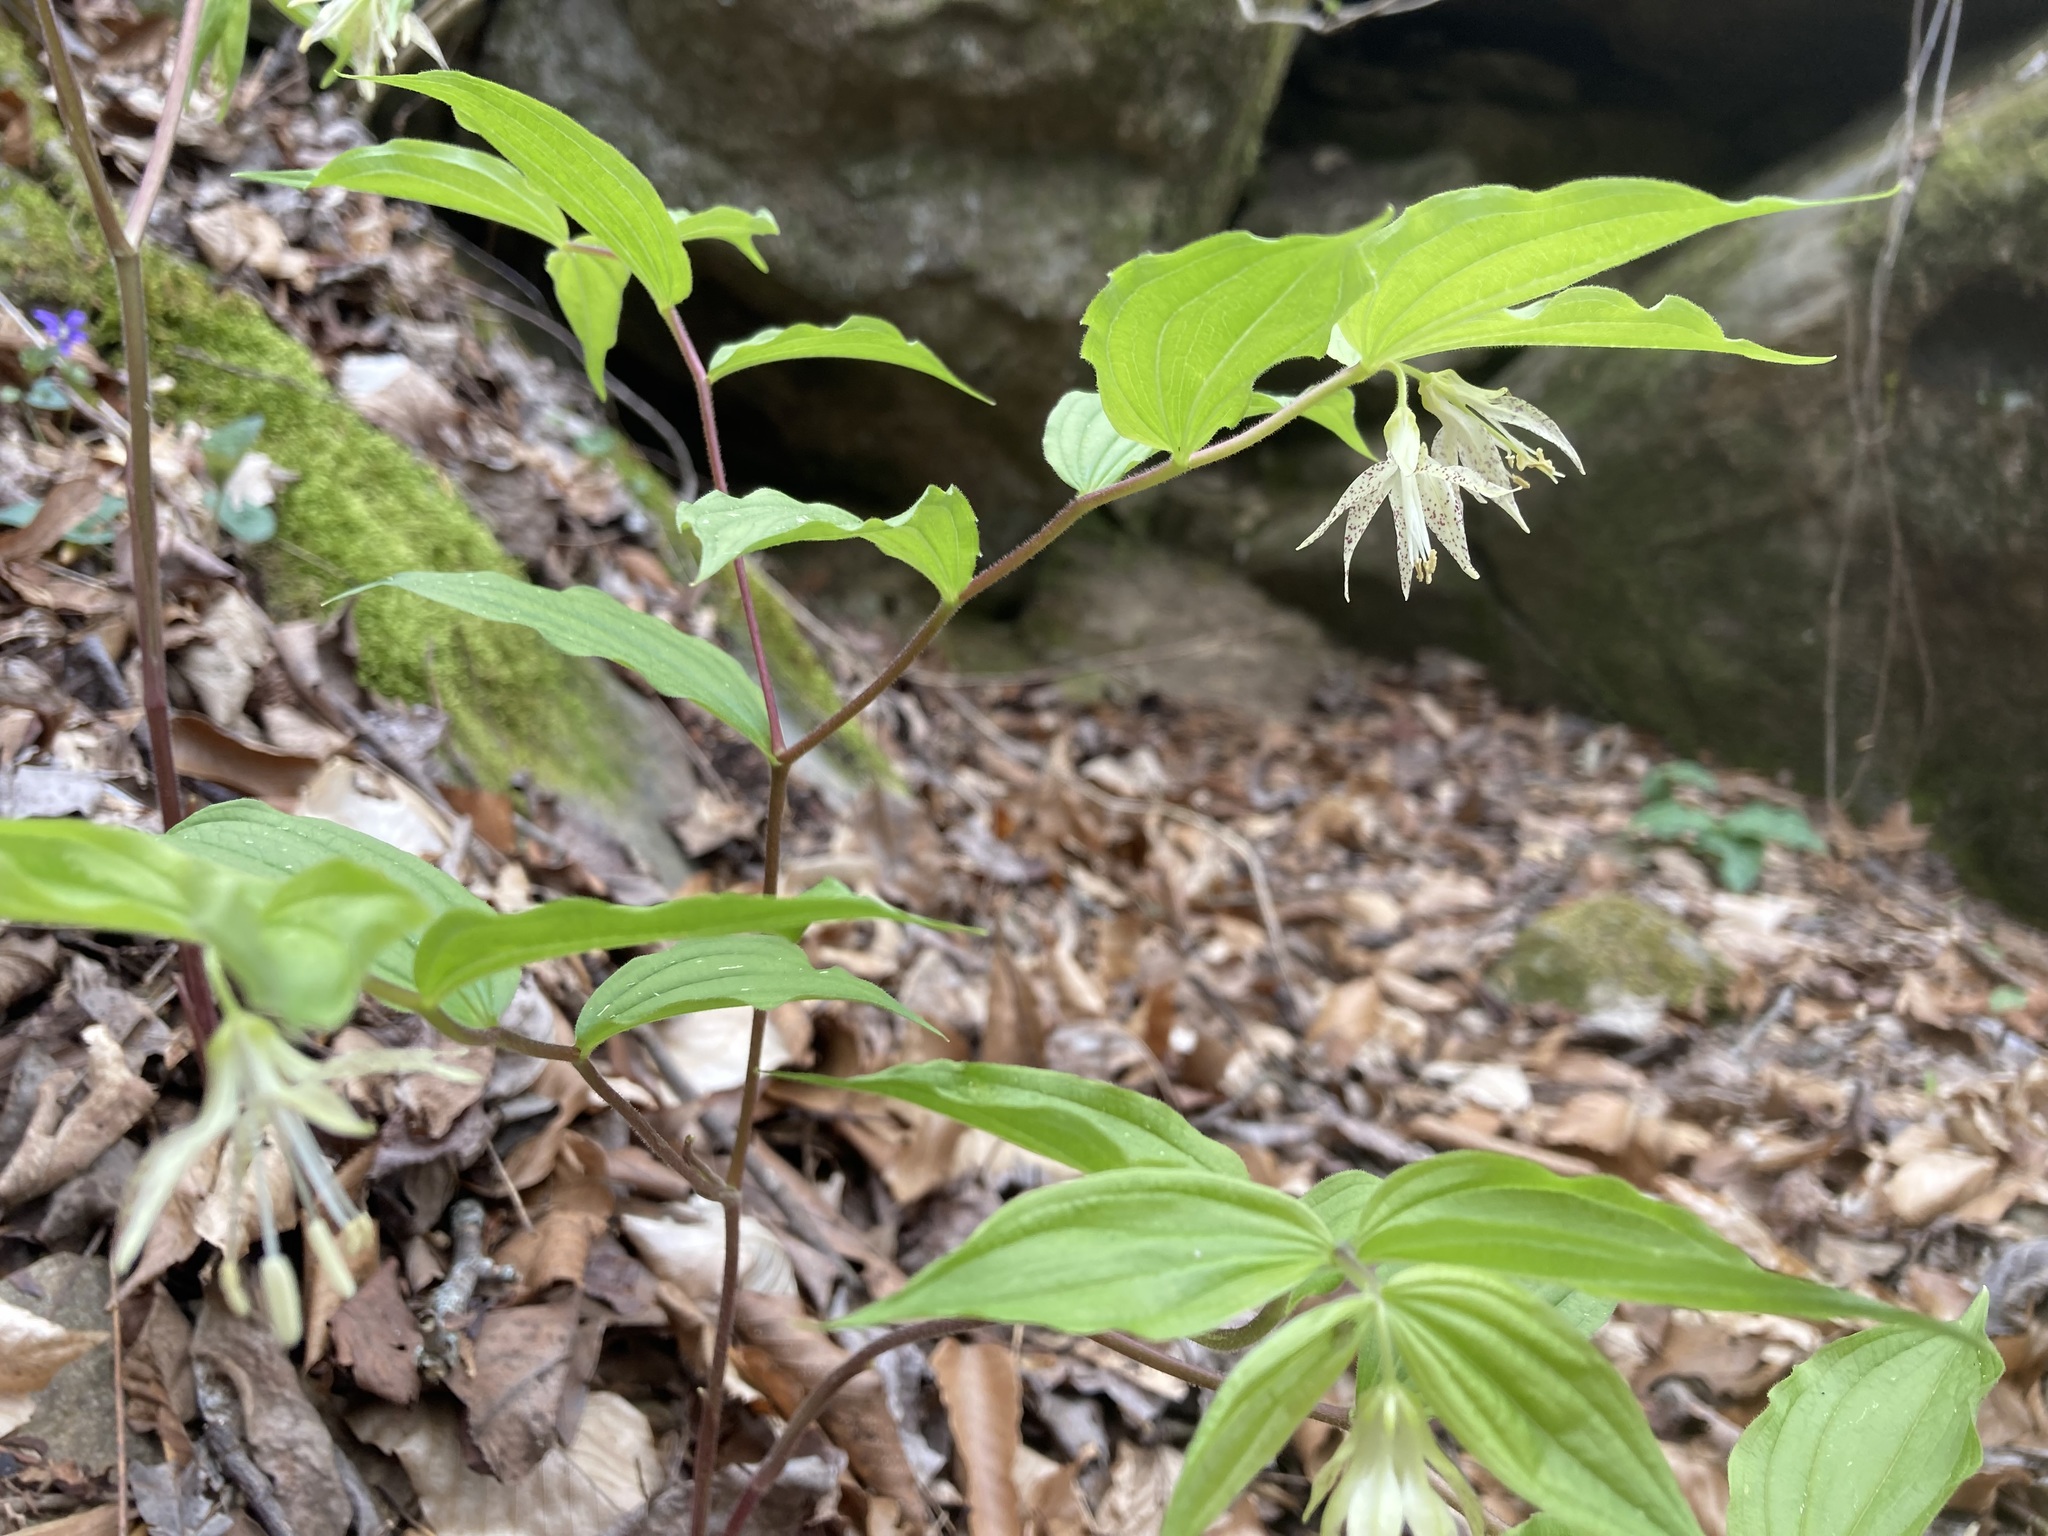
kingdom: Plantae
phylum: Tracheophyta
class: Liliopsida
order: Liliales
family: Liliaceae
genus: Prosartes
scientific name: Prosartes maculata
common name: Yellow mandarin
